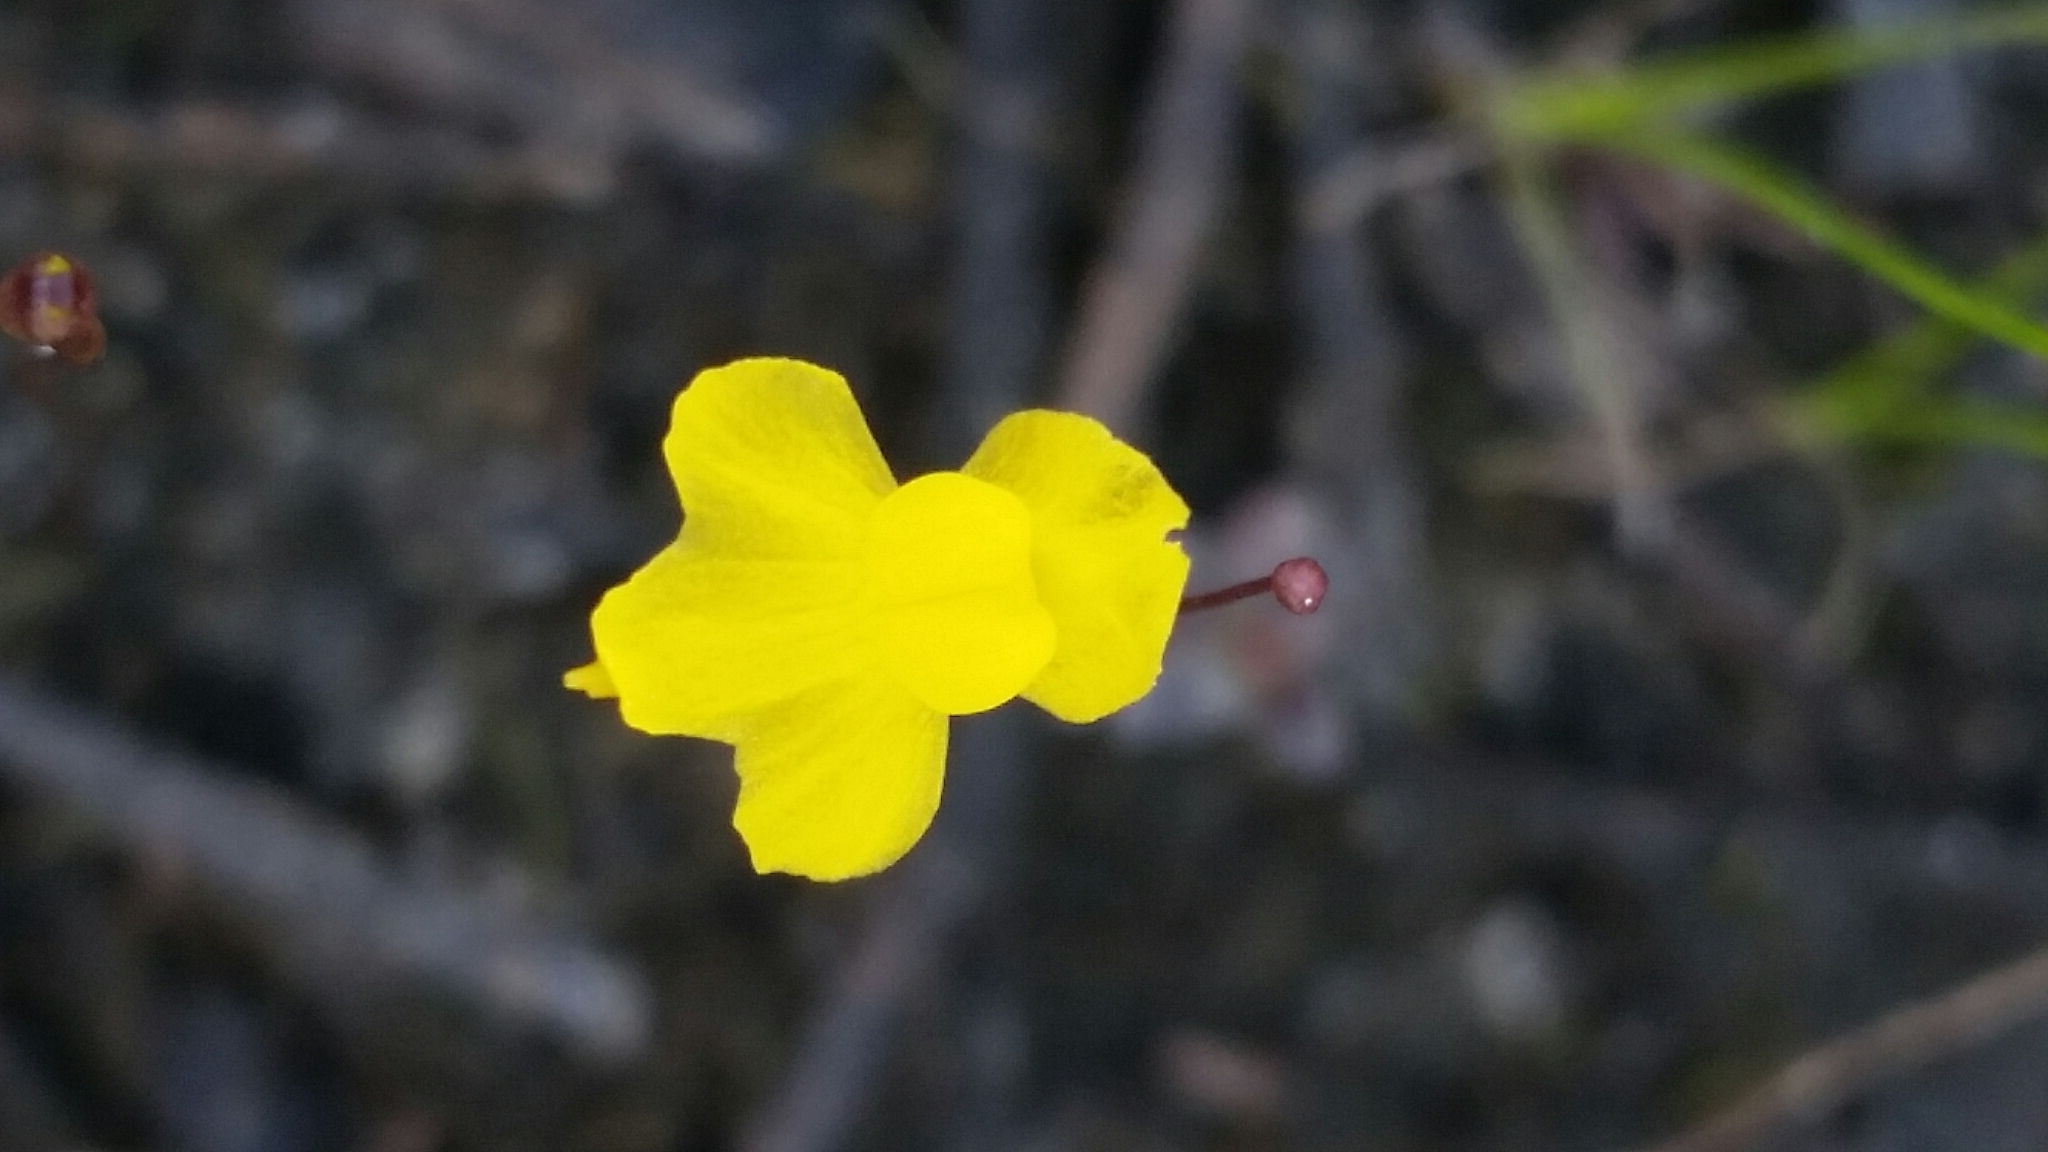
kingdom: Plantae
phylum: Tracheophyta
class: Magnoliopsida
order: Lamiales
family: Lentibulariaceae
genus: Utricularia
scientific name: Utricularia subulata
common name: Tiny bladderwort
